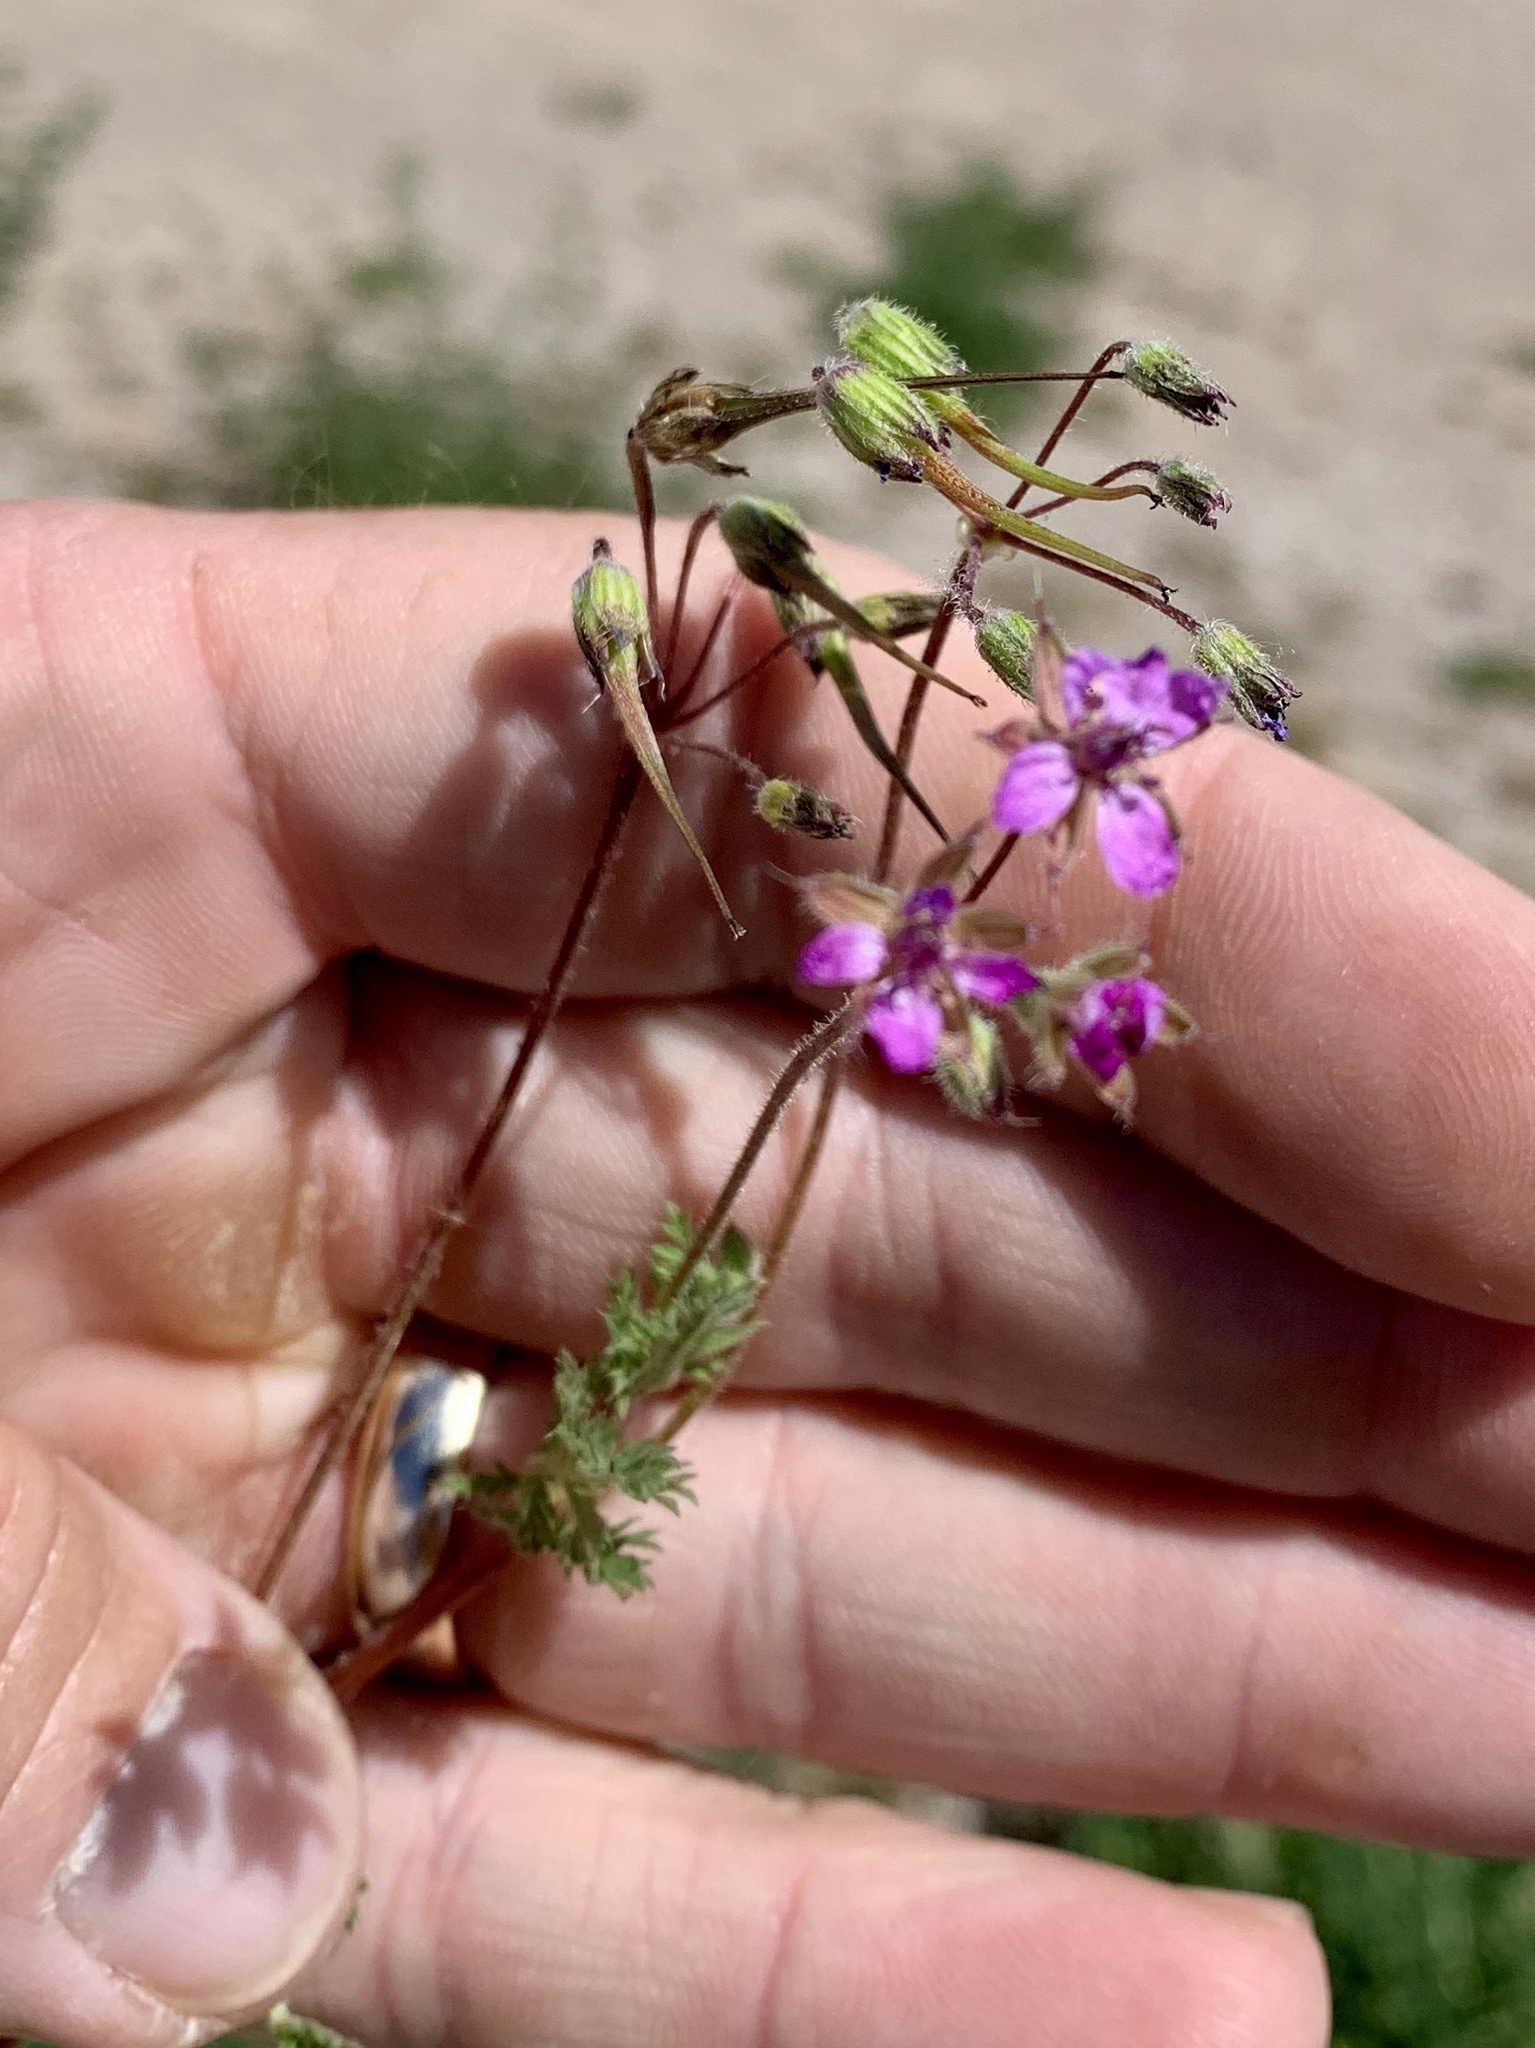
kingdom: Plantae
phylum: Tracheophyta
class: Magnoliopsida
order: Geraniales
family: Geraniaceae
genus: Erodium
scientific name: Erodium cicutarium
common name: Common stork's-bill
